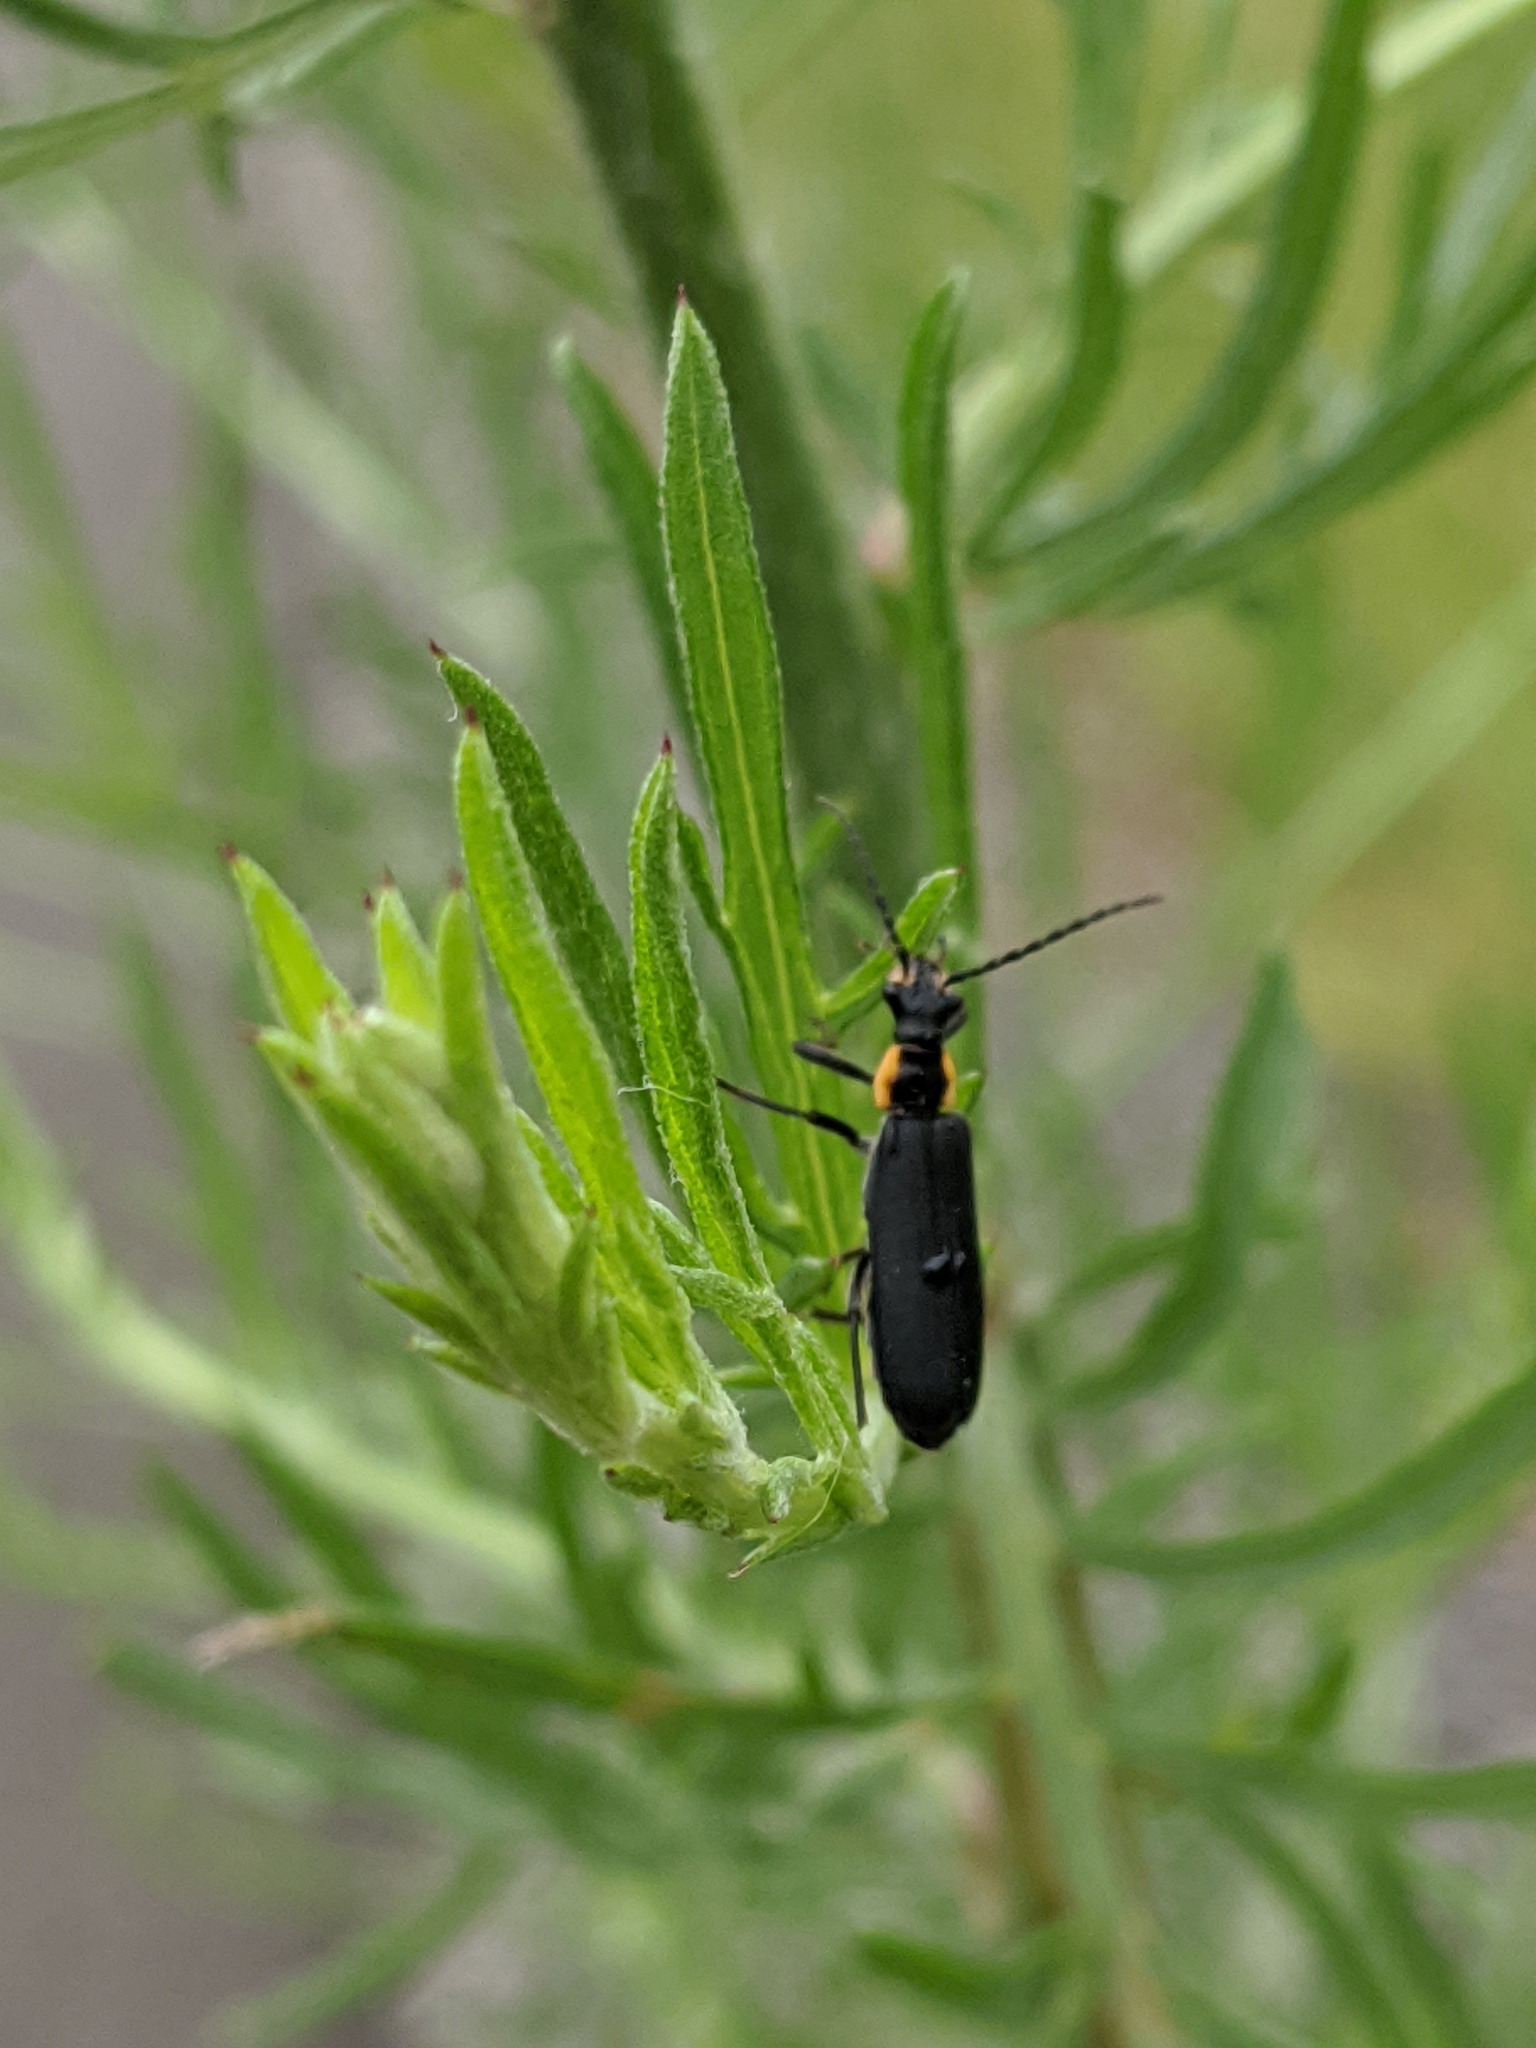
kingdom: Animalia
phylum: Arthropoda
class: Insecta
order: Coleoptera
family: Cantharidae
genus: Podabrus
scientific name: Podabrus rugosulus
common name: Wrinkled soldier beetle
